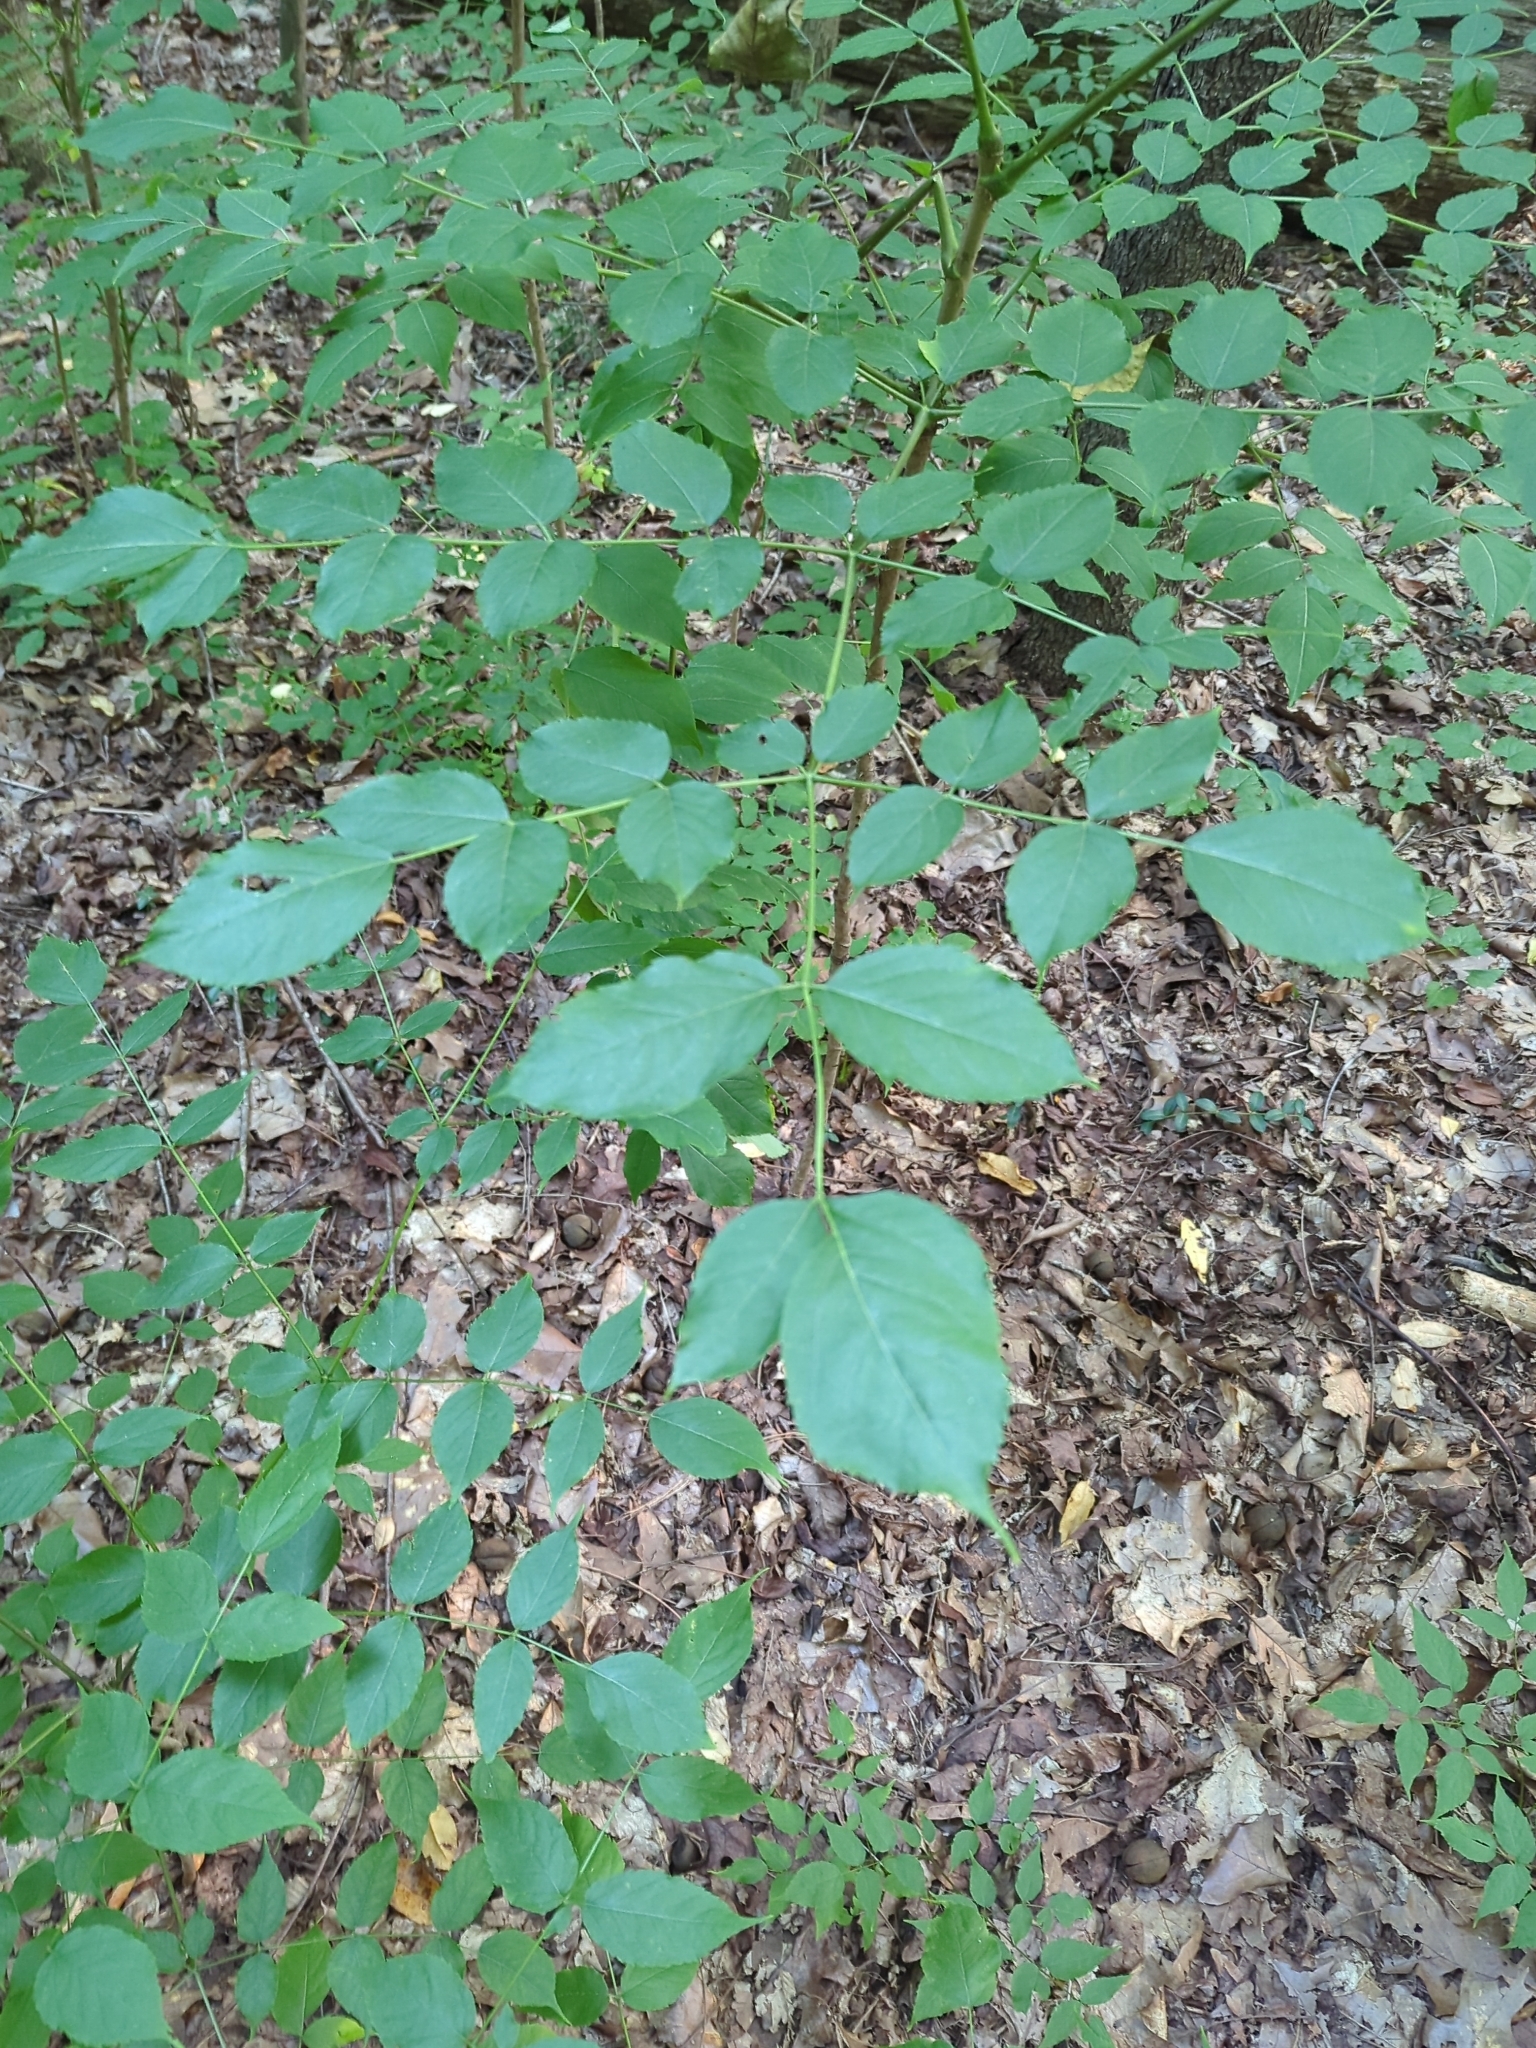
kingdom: Plantae
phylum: Tracheophyta
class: Magnoliopsida
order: Apiales
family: Araliaceae
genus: Aralia
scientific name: Aralia spinosa
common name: Hercules'-club
